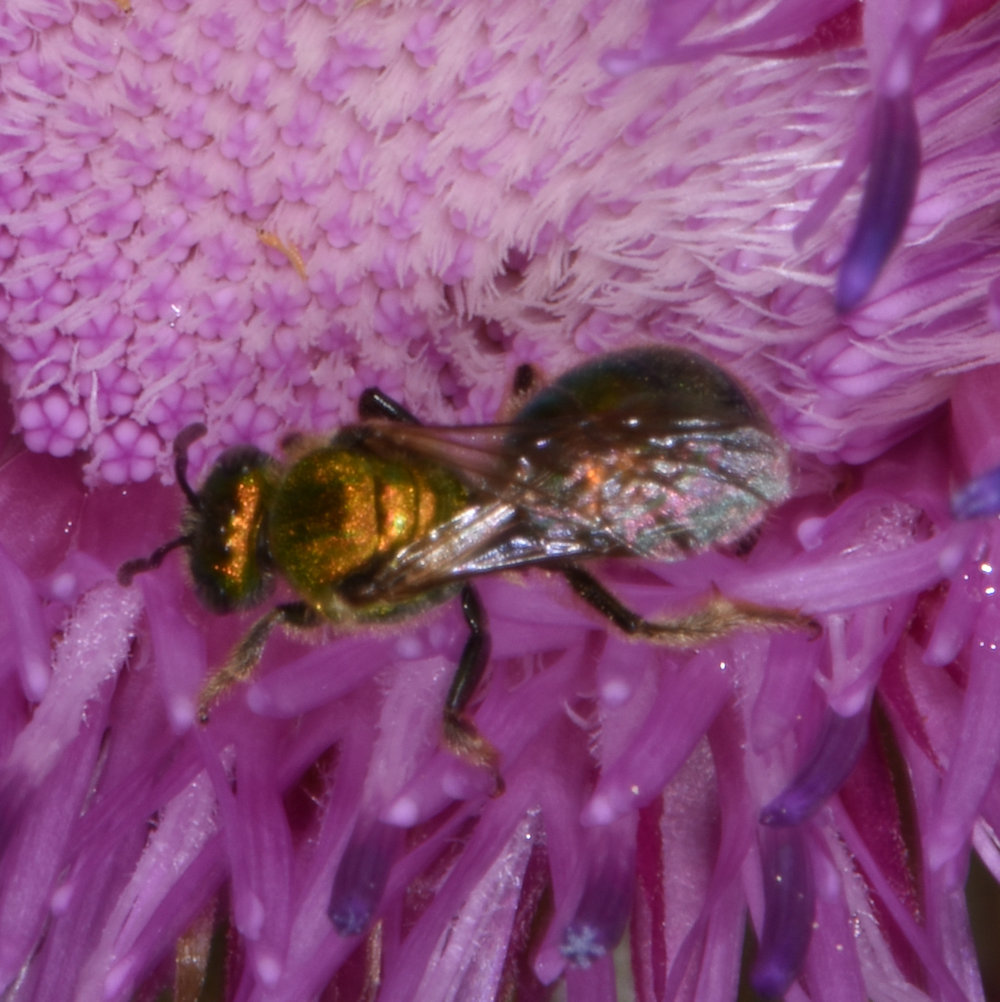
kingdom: Animalia
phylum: Arthropoda
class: Insecta
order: Hymenoptera
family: Halictidae
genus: Augochlorella
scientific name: Augochlorella aurata
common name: Golden sweat bee
